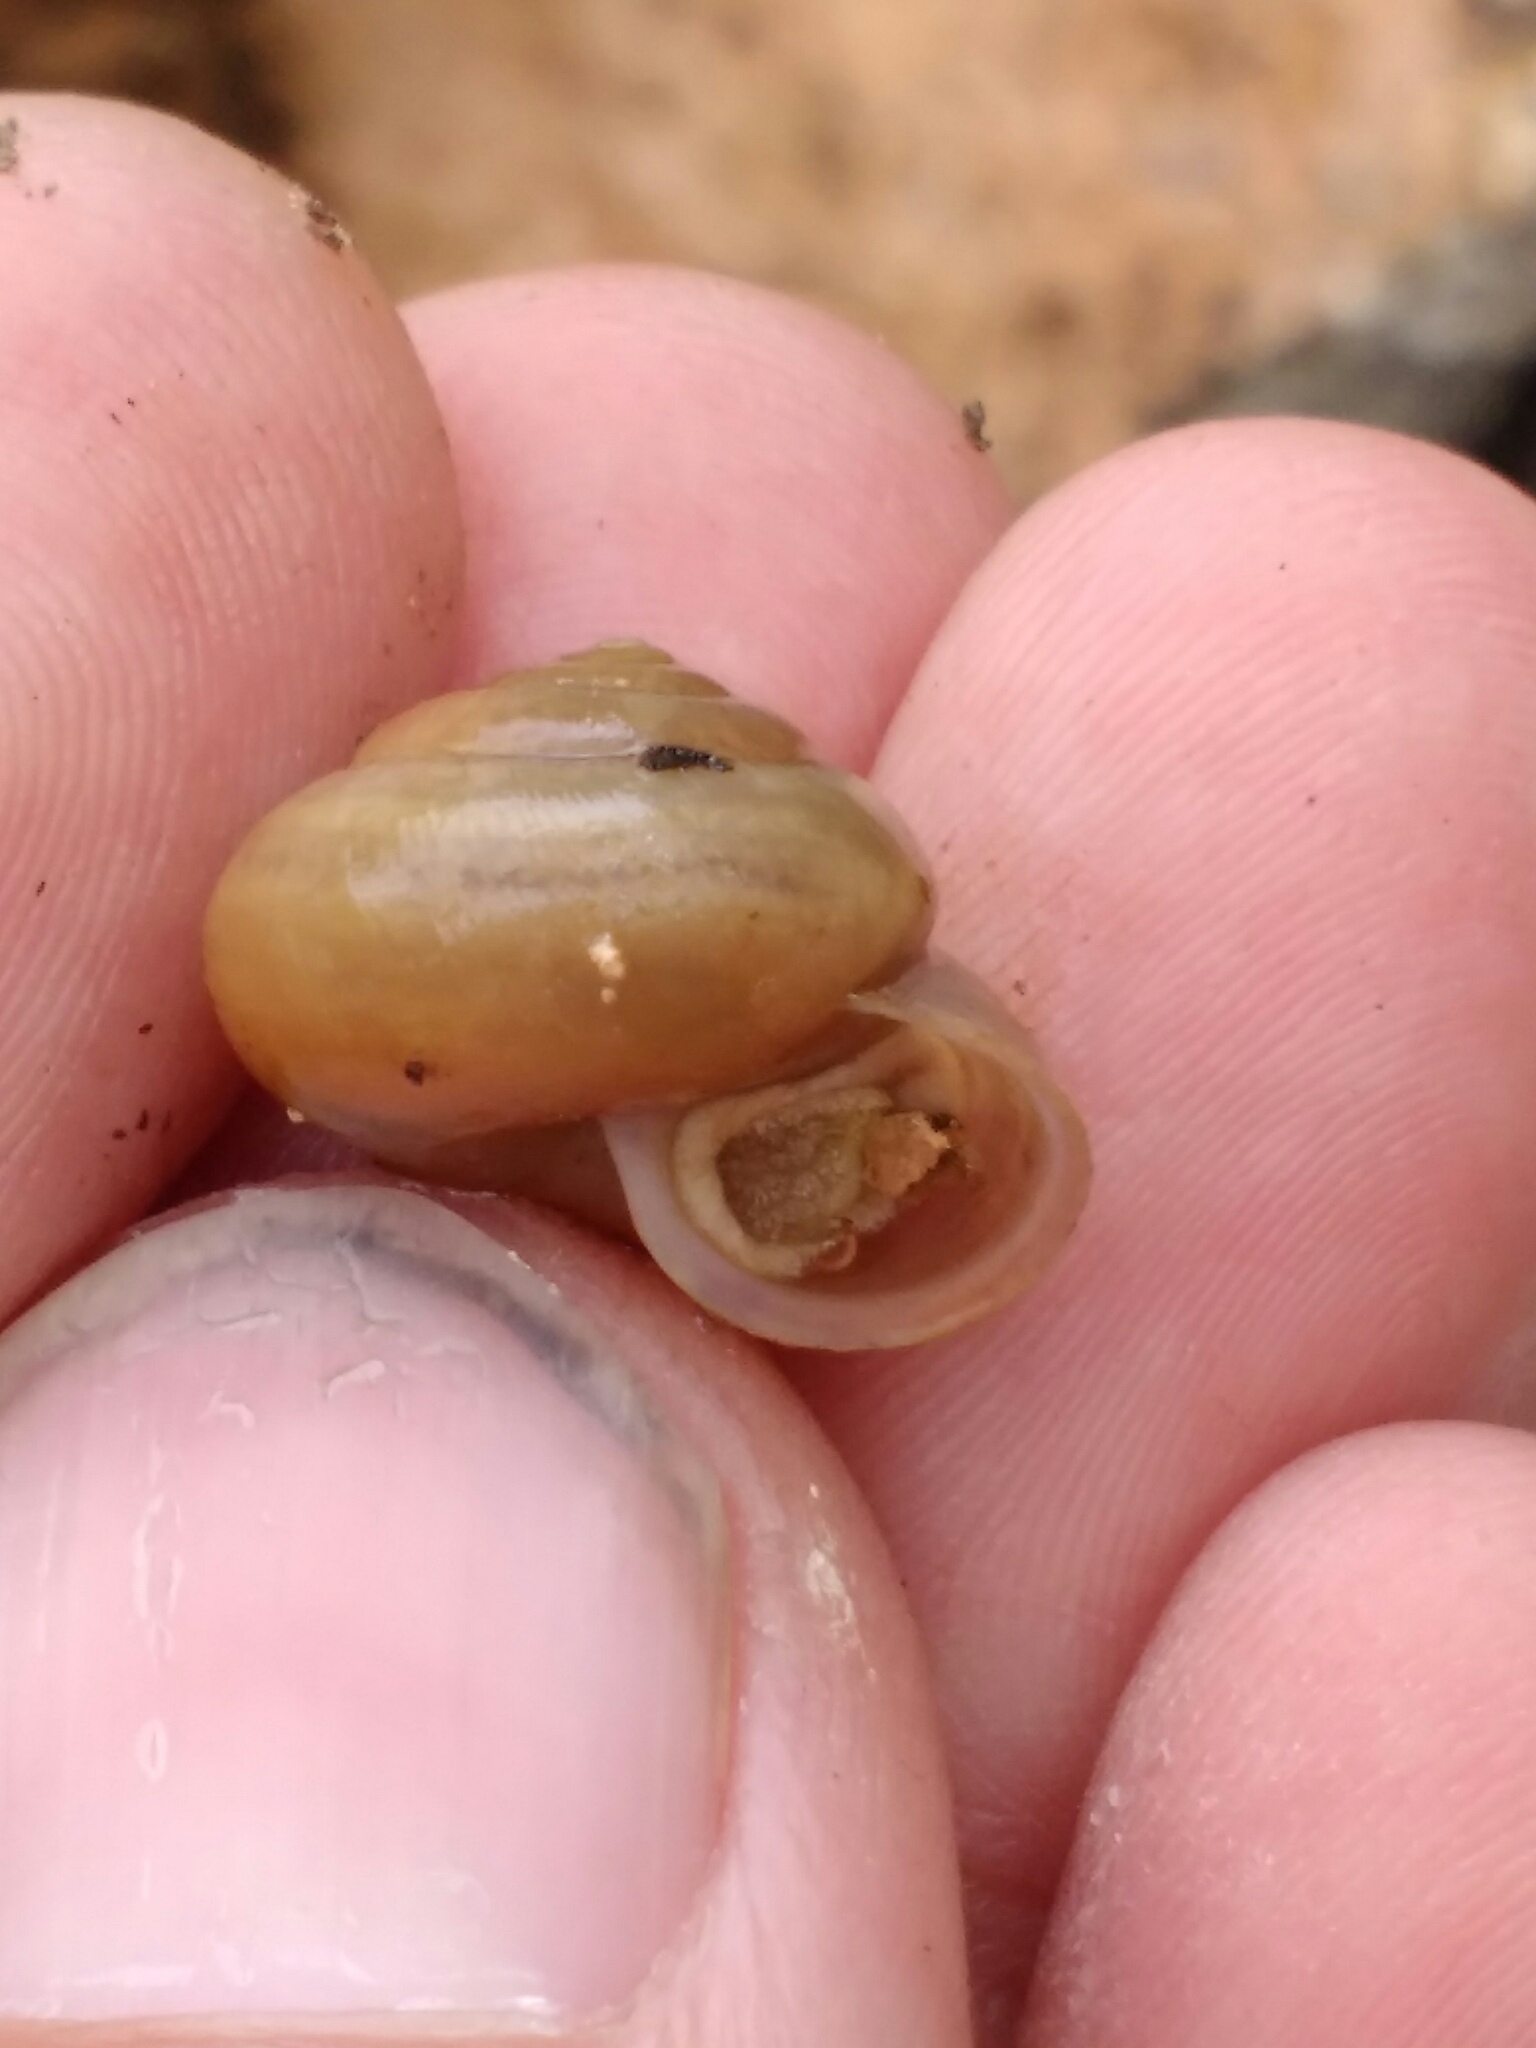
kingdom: Animalia
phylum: Mollusca
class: Gastropoda
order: Stylommatophora
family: Camaenidae
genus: Bradybaena
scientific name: Bradybaena similaris
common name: Asian trampsnail
